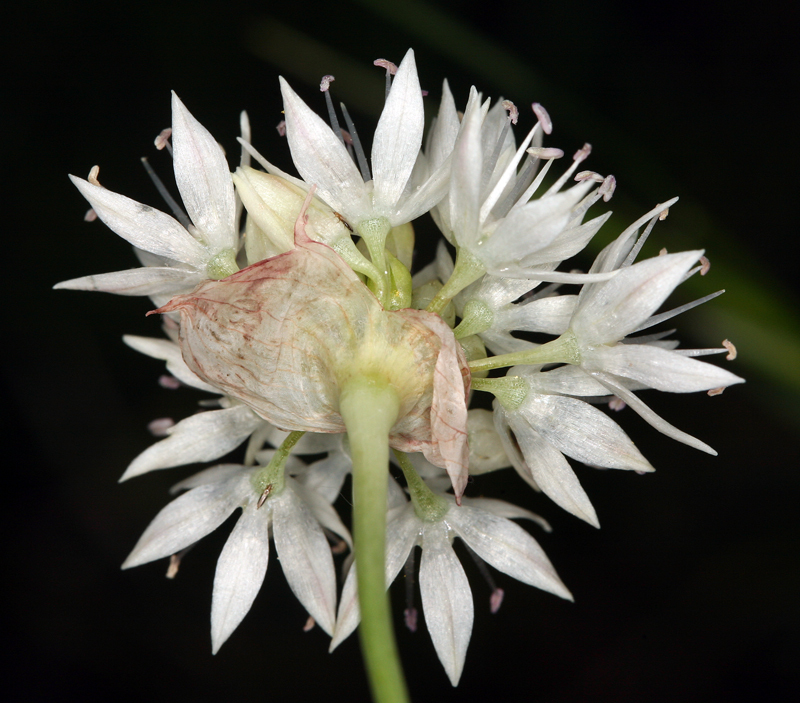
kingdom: Plantae
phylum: Tracheophyta
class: Liliopsida
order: Asparagales
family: Amaryllidaceae
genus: Allium
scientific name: Allium amplectens
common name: Narrow-leaved onion
